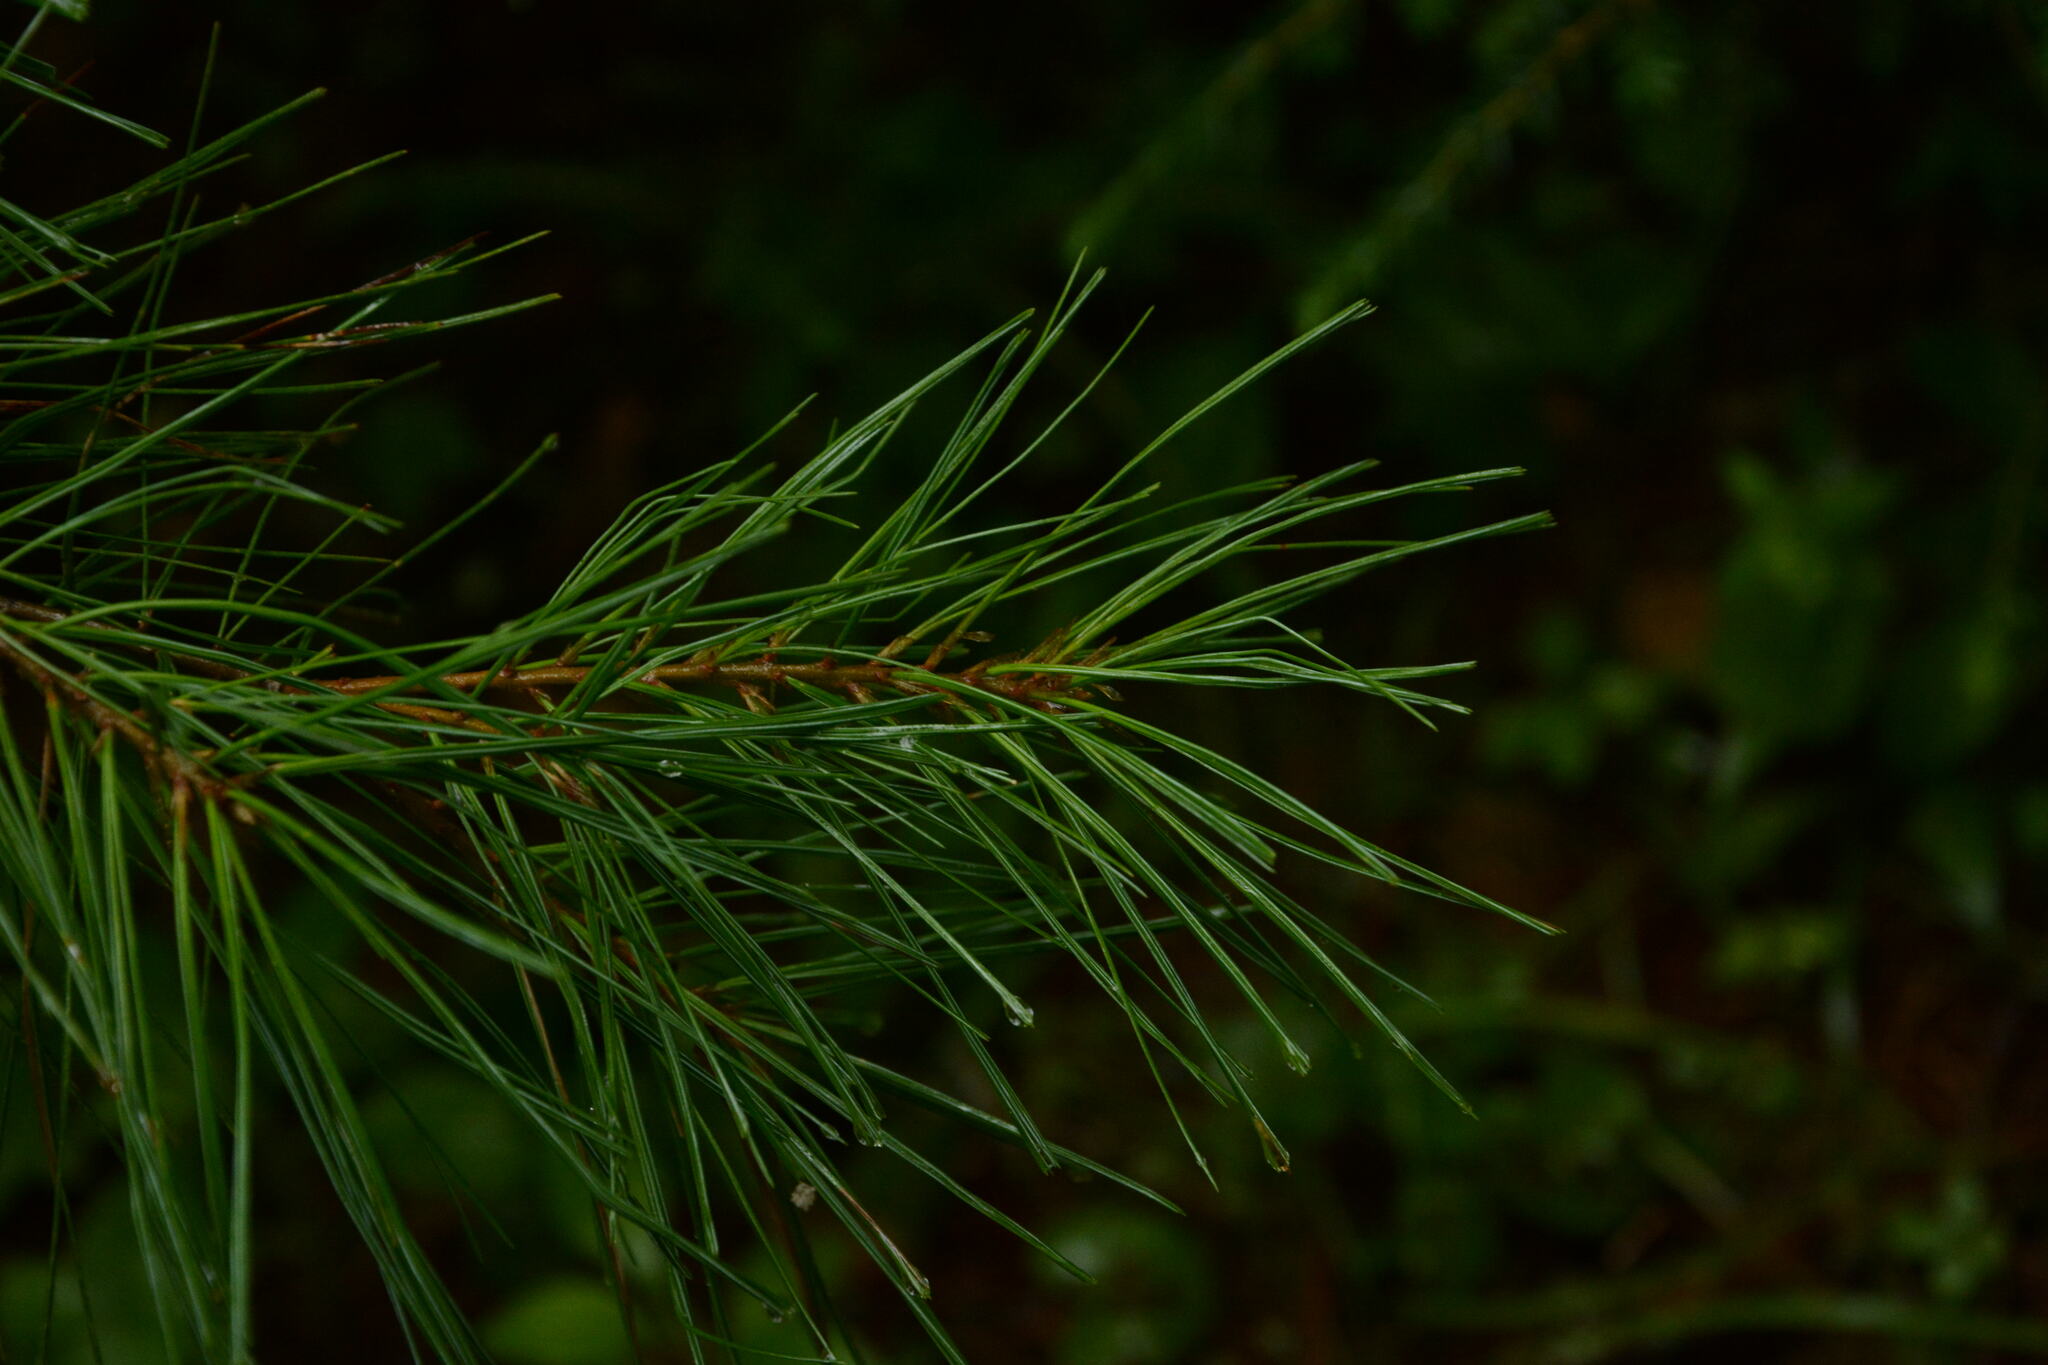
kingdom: Plantae
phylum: Tracheophyta
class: Pinopsida
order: Pinales
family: Pinaceae
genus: Pinus
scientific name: Pinus strobus
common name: Weymouth pine
